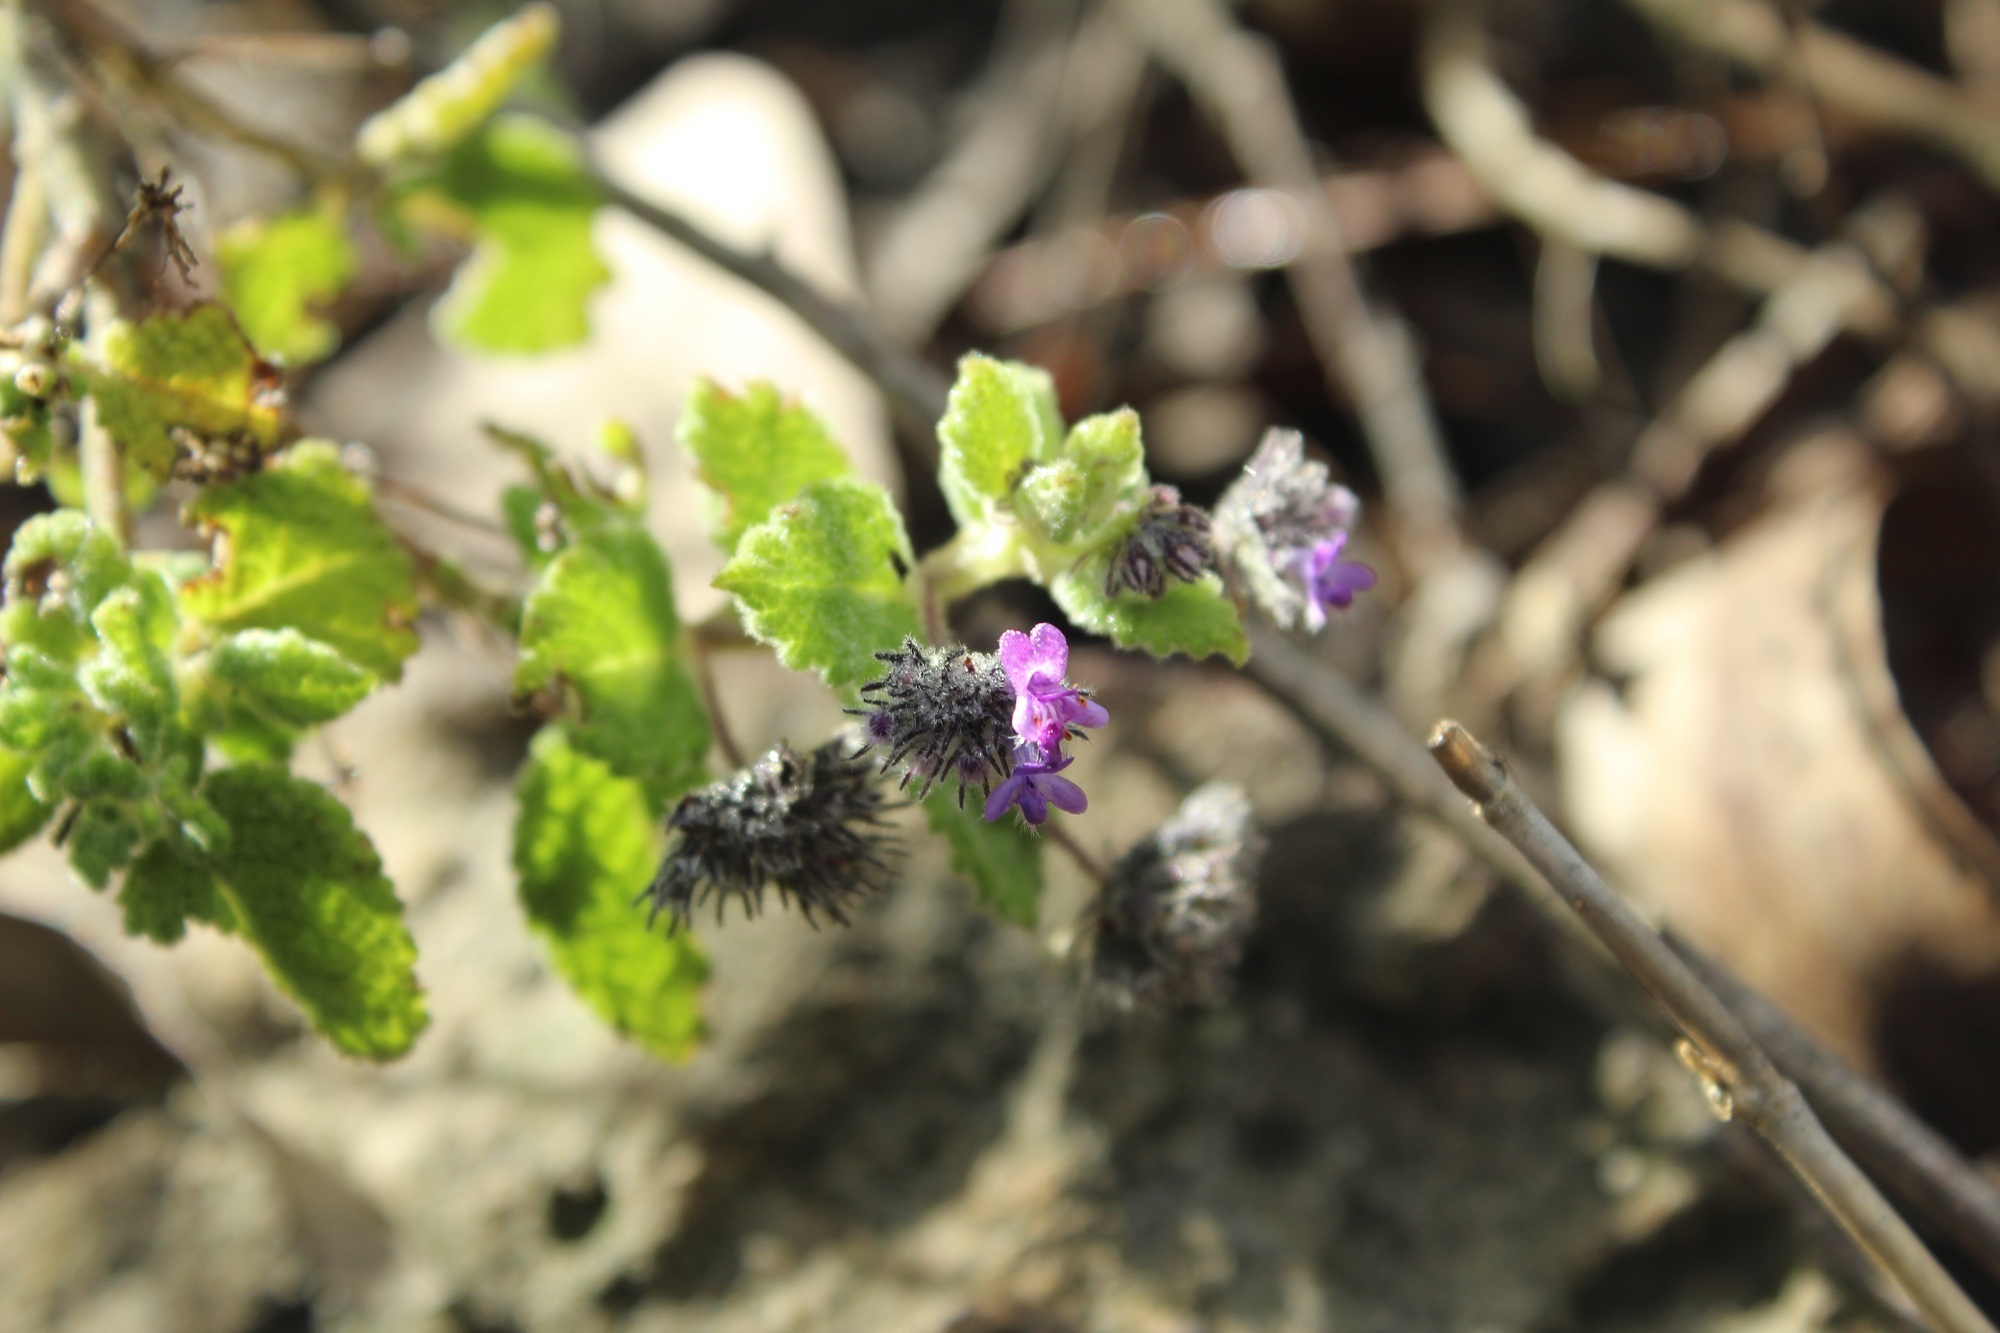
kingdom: Plantae
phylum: Tracheophyta
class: Magnoliopsida
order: Lamiales
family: Lamiaceae
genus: Mesosphaerum
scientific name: Mesosphaerum perbullatum
